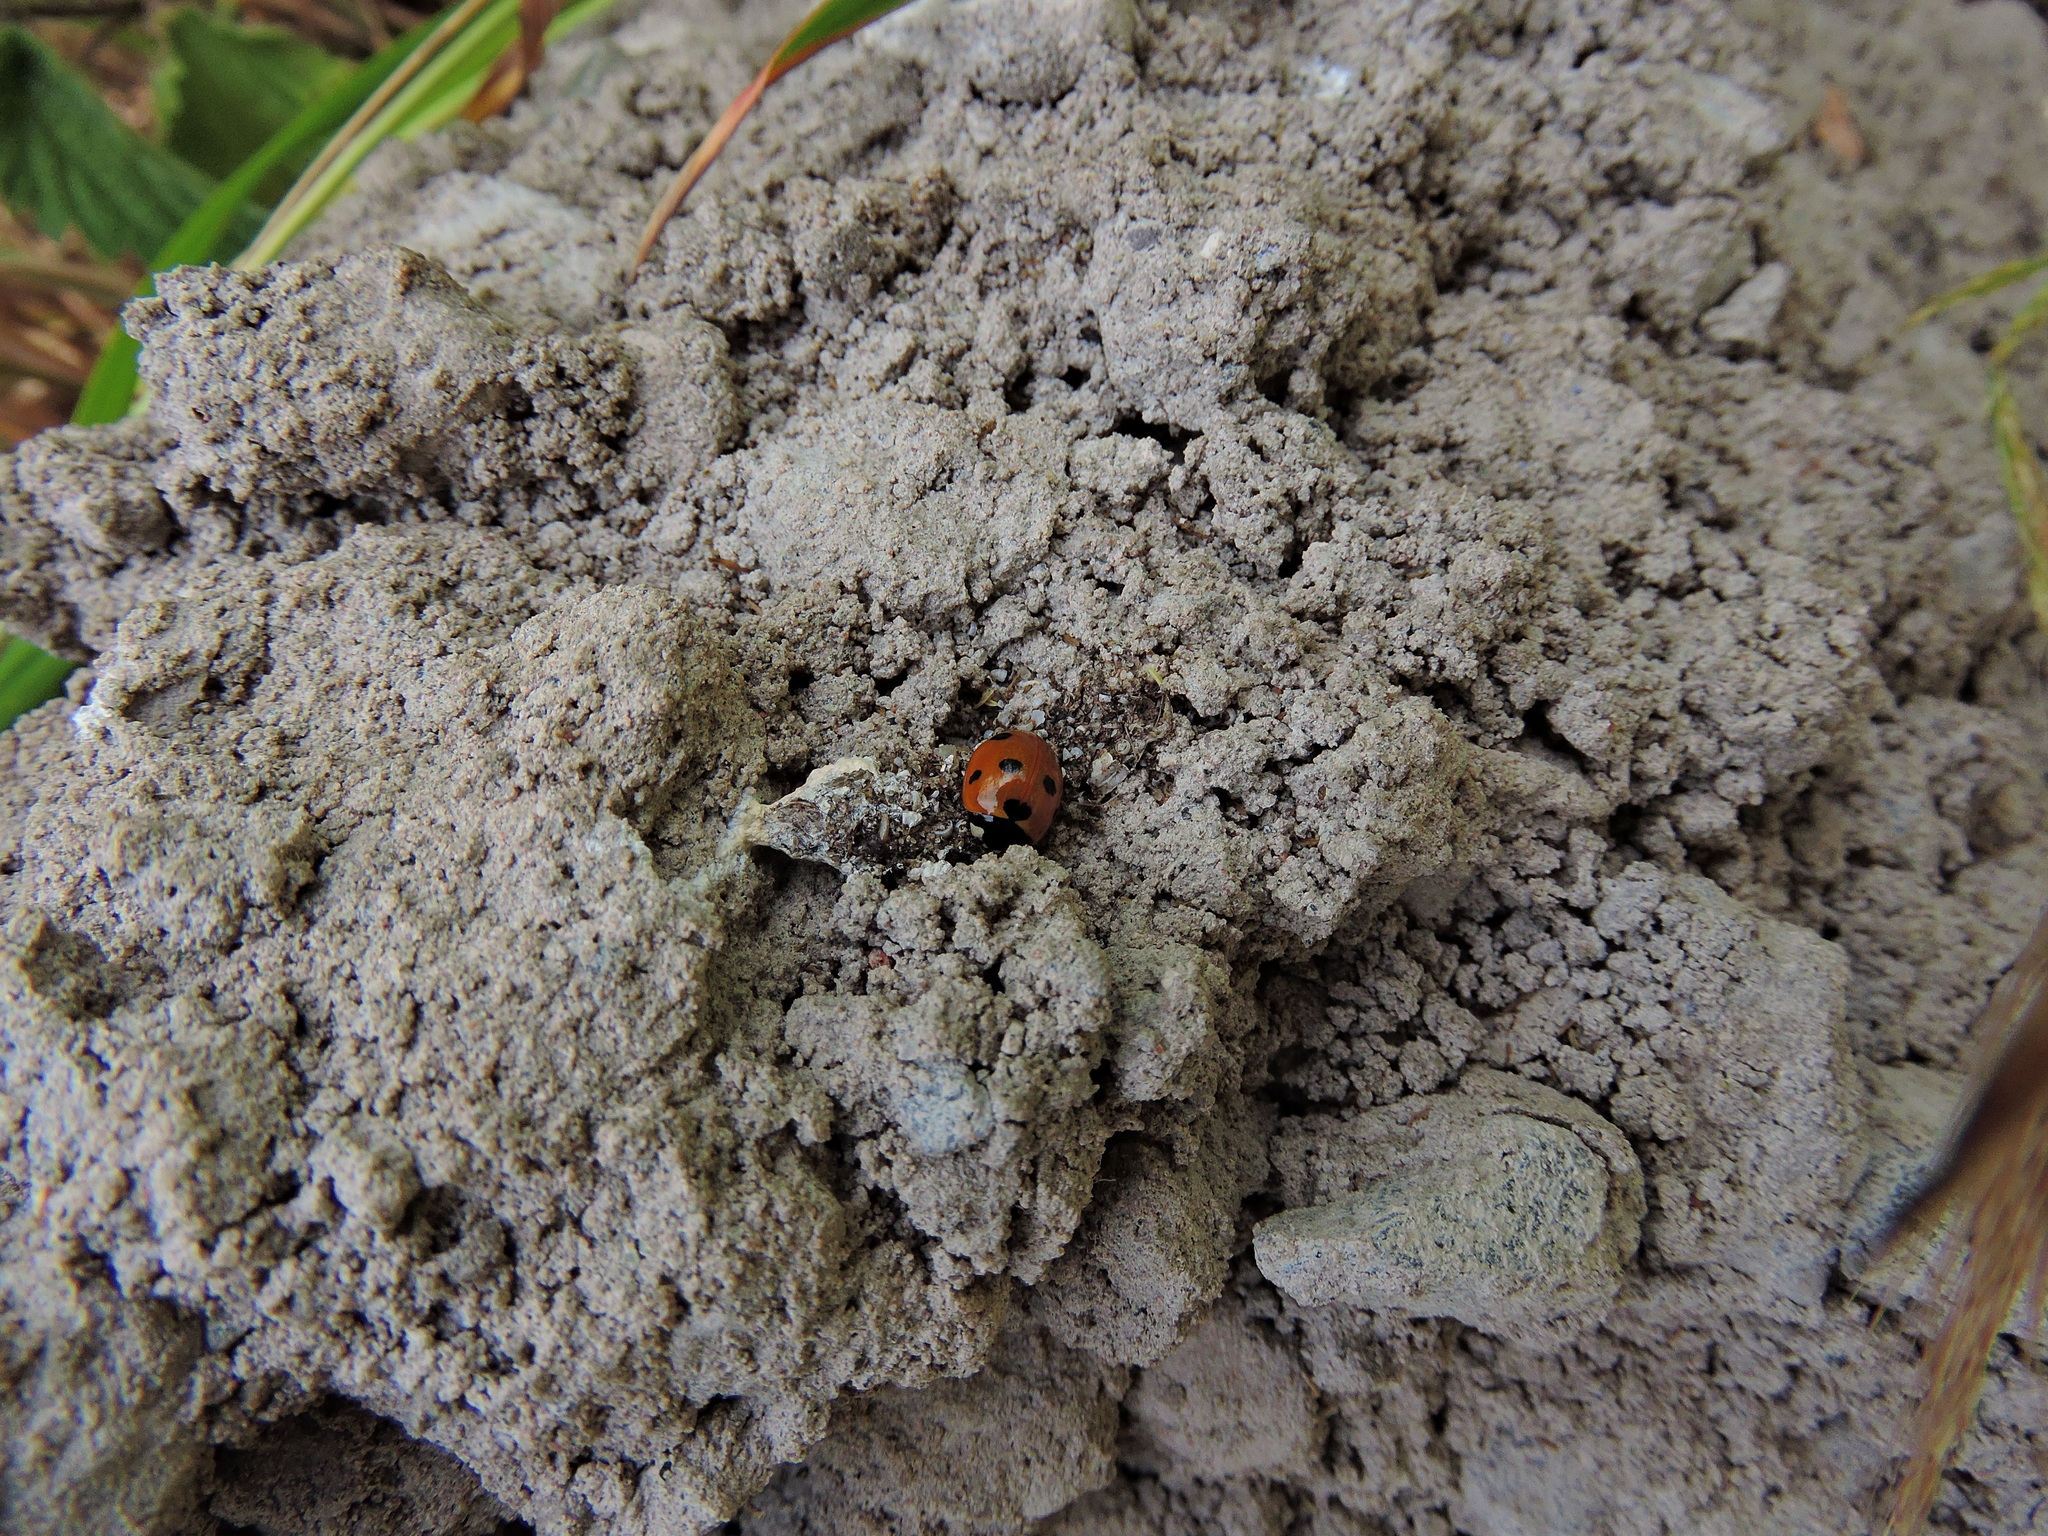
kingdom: Animalia
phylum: Arthropoda
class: Insecta
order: Coleoptera
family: Coccinellidae
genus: Coccinella
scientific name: Coccinella septempunctata
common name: Sevenspotted lady beetle
